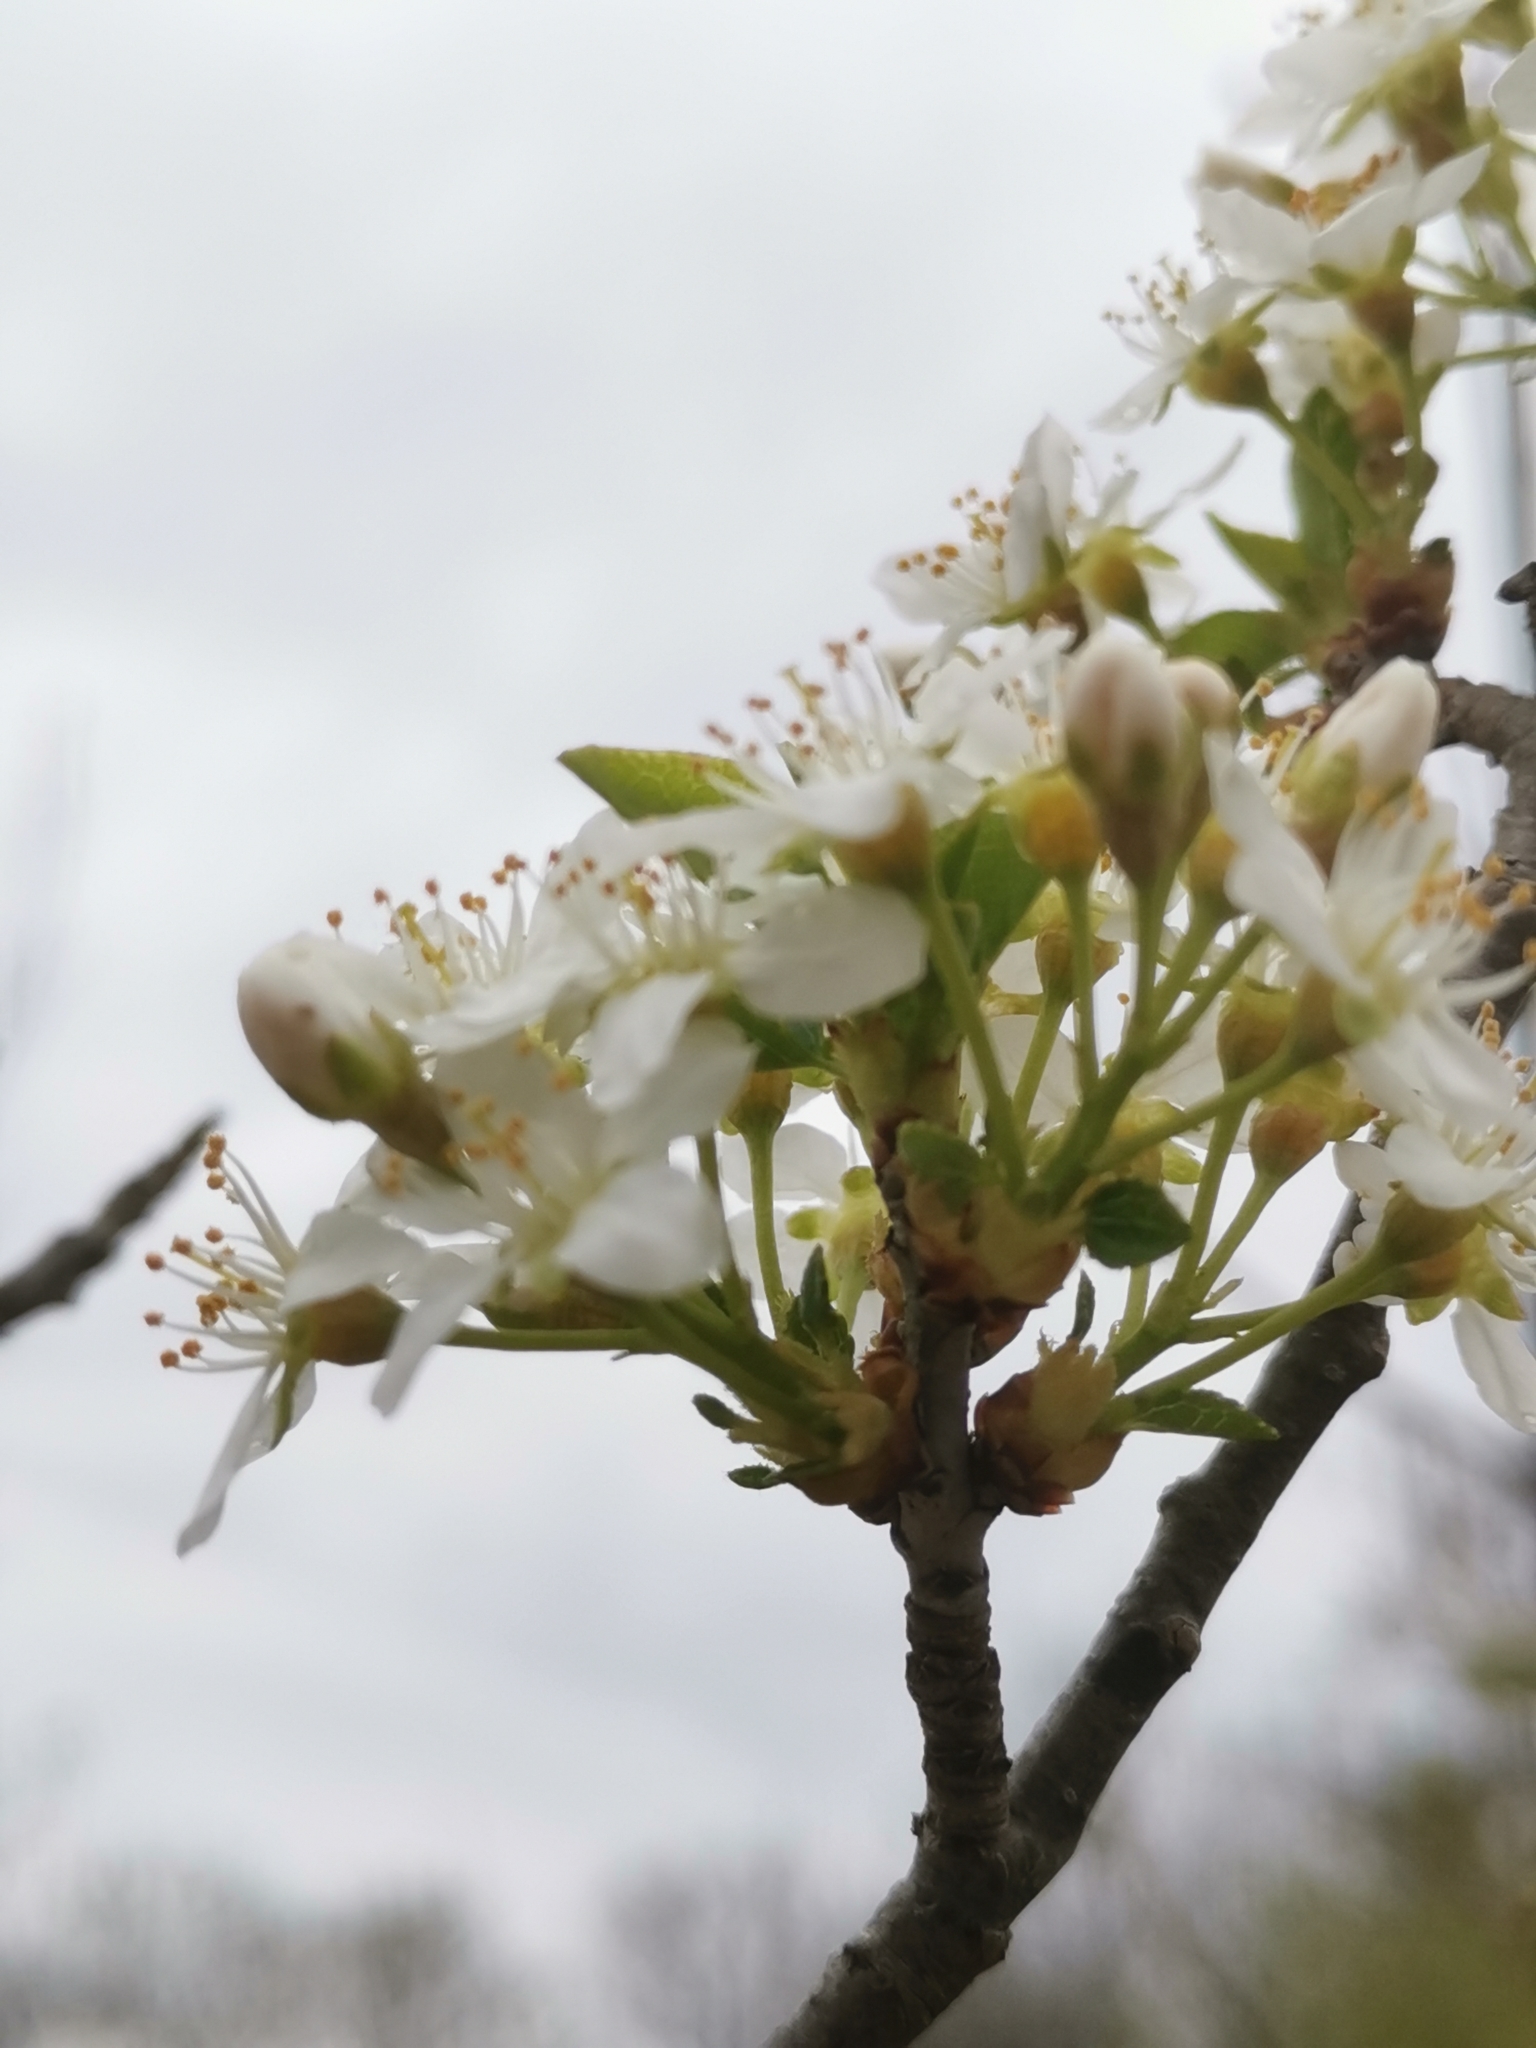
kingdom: Plantae
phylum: Tracheophyta
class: Magnoliopsida
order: Rosales
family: Rosaceae
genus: Prunus
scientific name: Prunus mahaleb
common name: Mahaleb cherry
